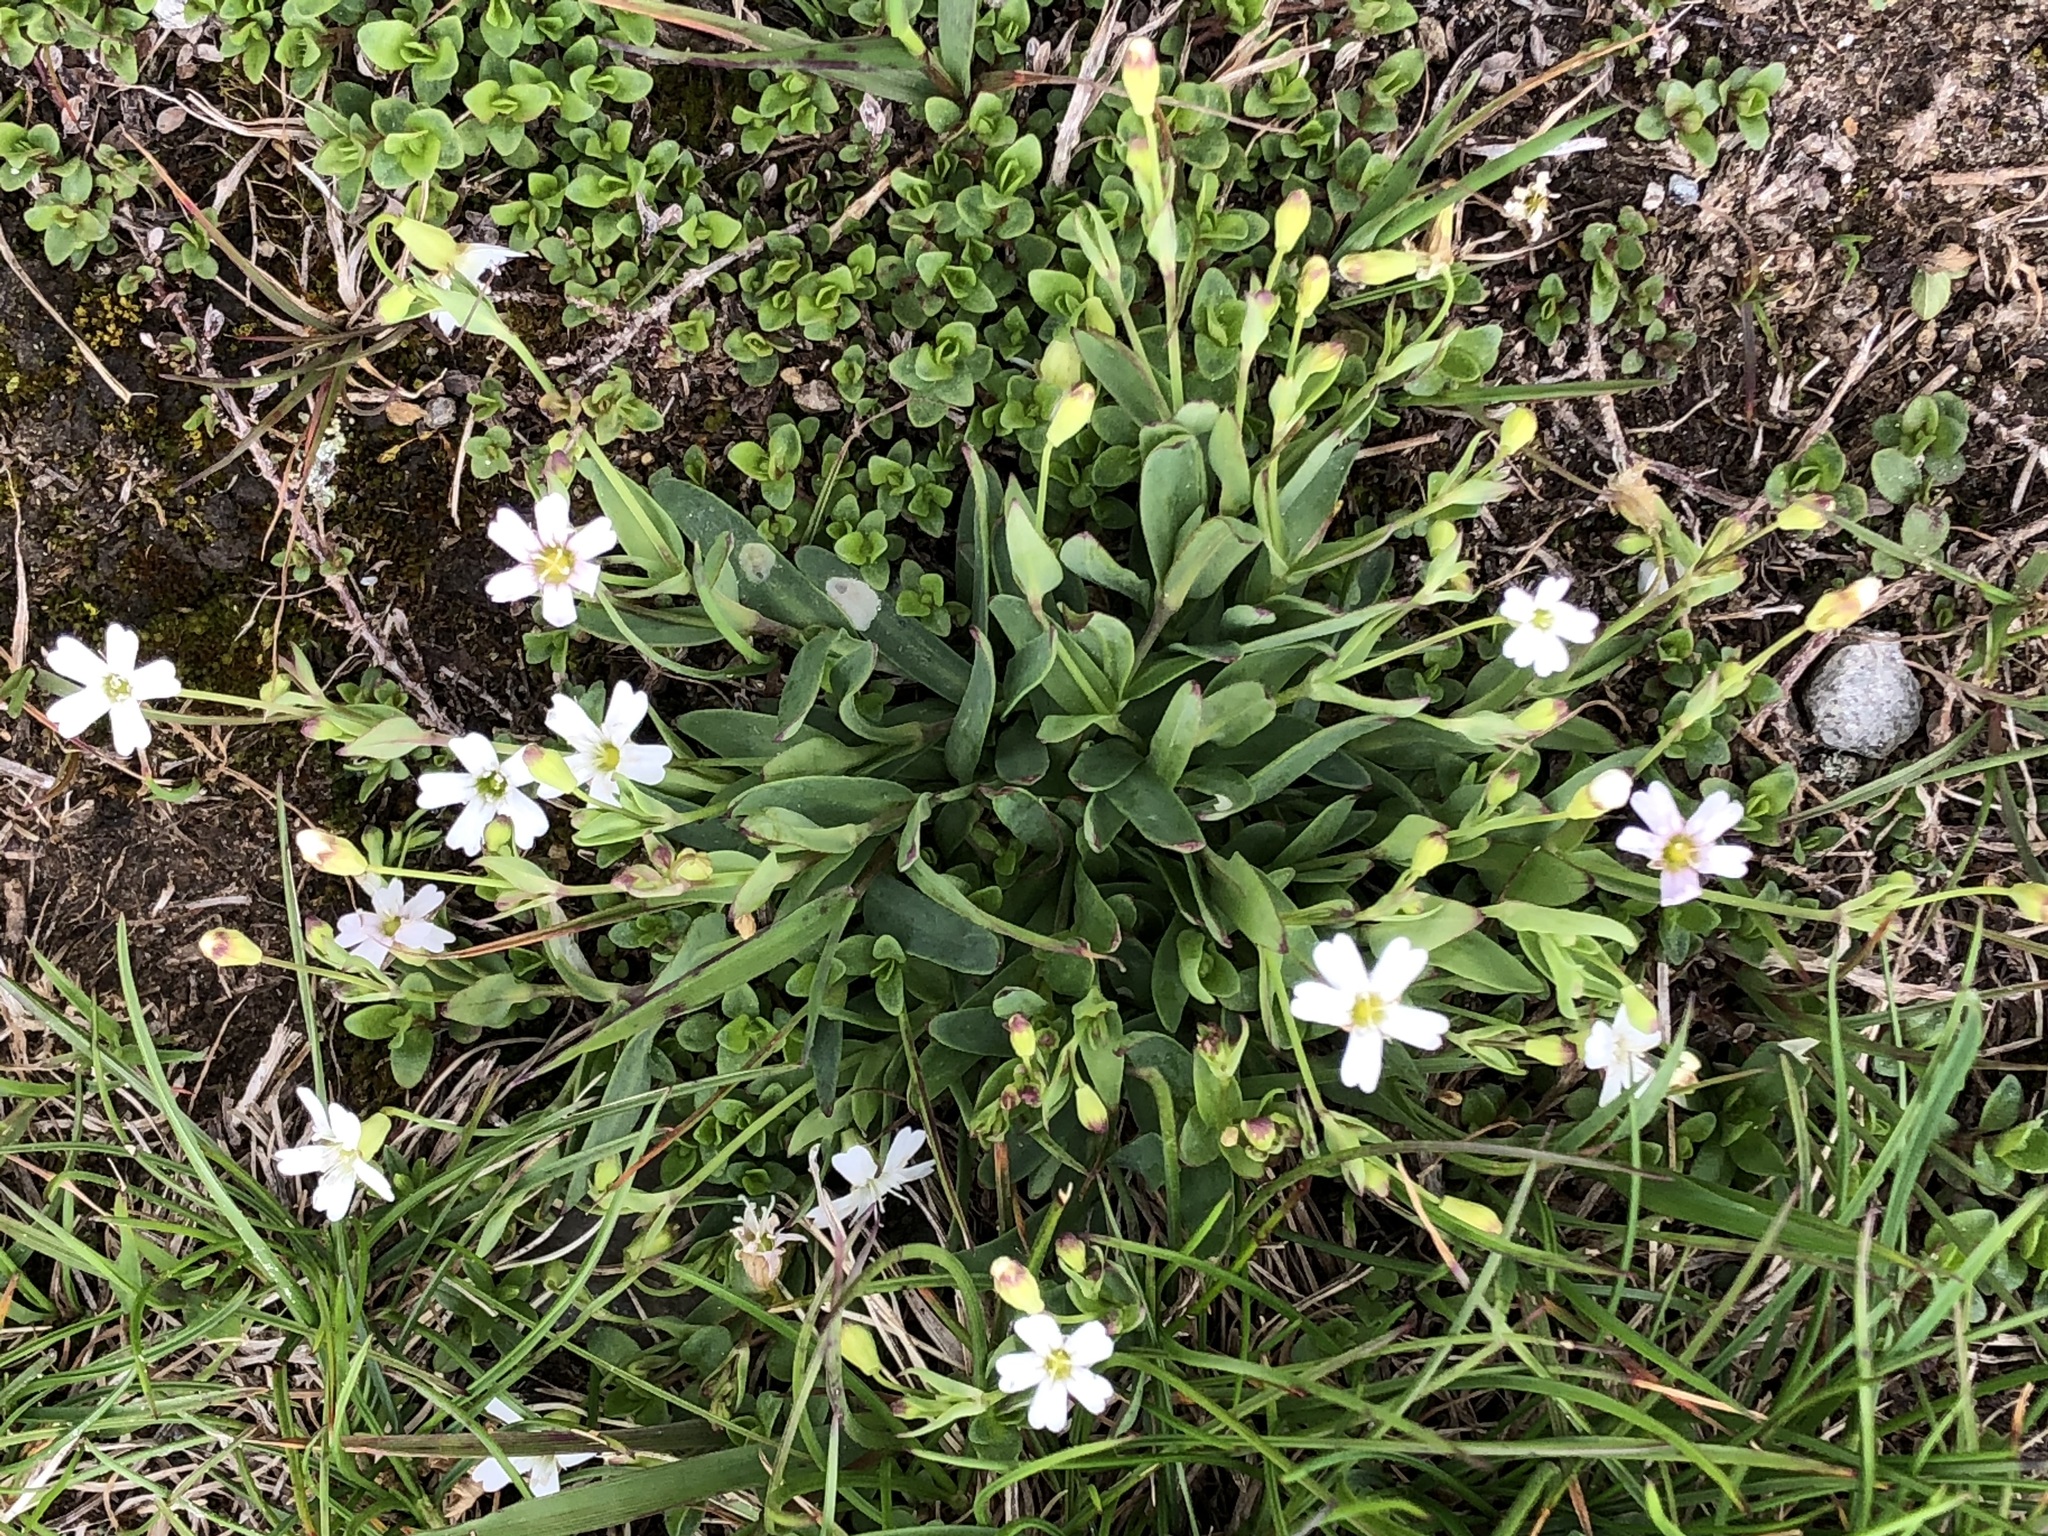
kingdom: Plantae
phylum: Tracheophyta
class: Magnoliopsida
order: Caryophyllales
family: Caryophyllaceae
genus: Atocion
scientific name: Atocion rupestre
